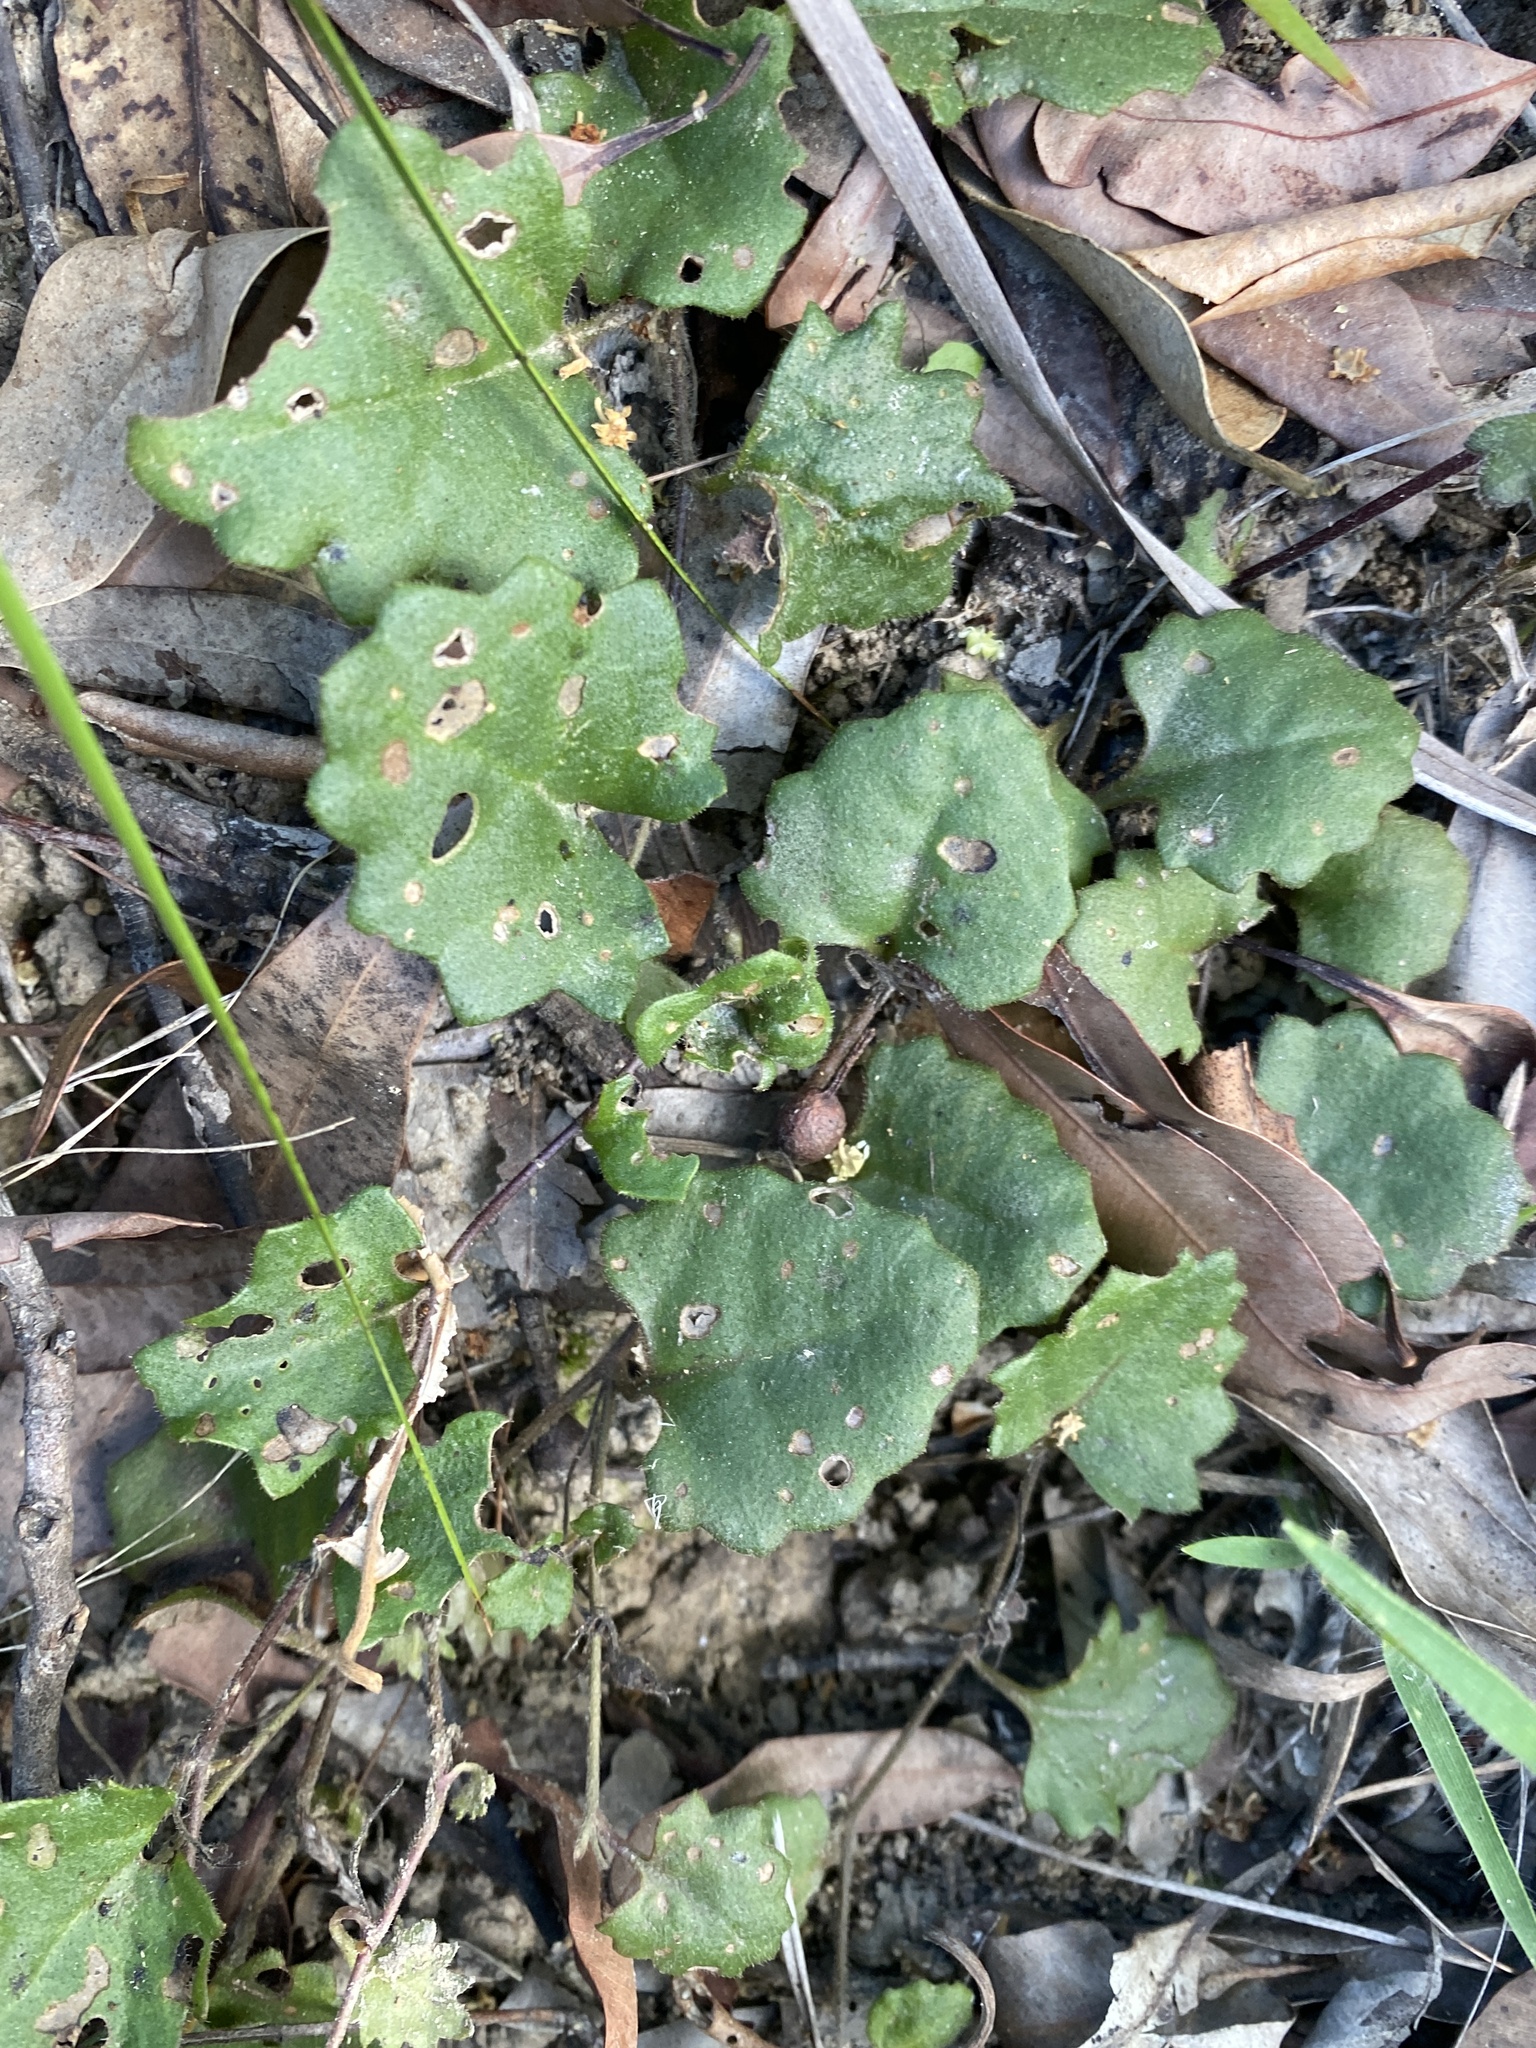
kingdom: Plantae
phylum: Tracheophyta
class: Magnoliopsida
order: Asterales
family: Goodeniaceae
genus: Goodenia
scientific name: Goodenia rotundifolia
